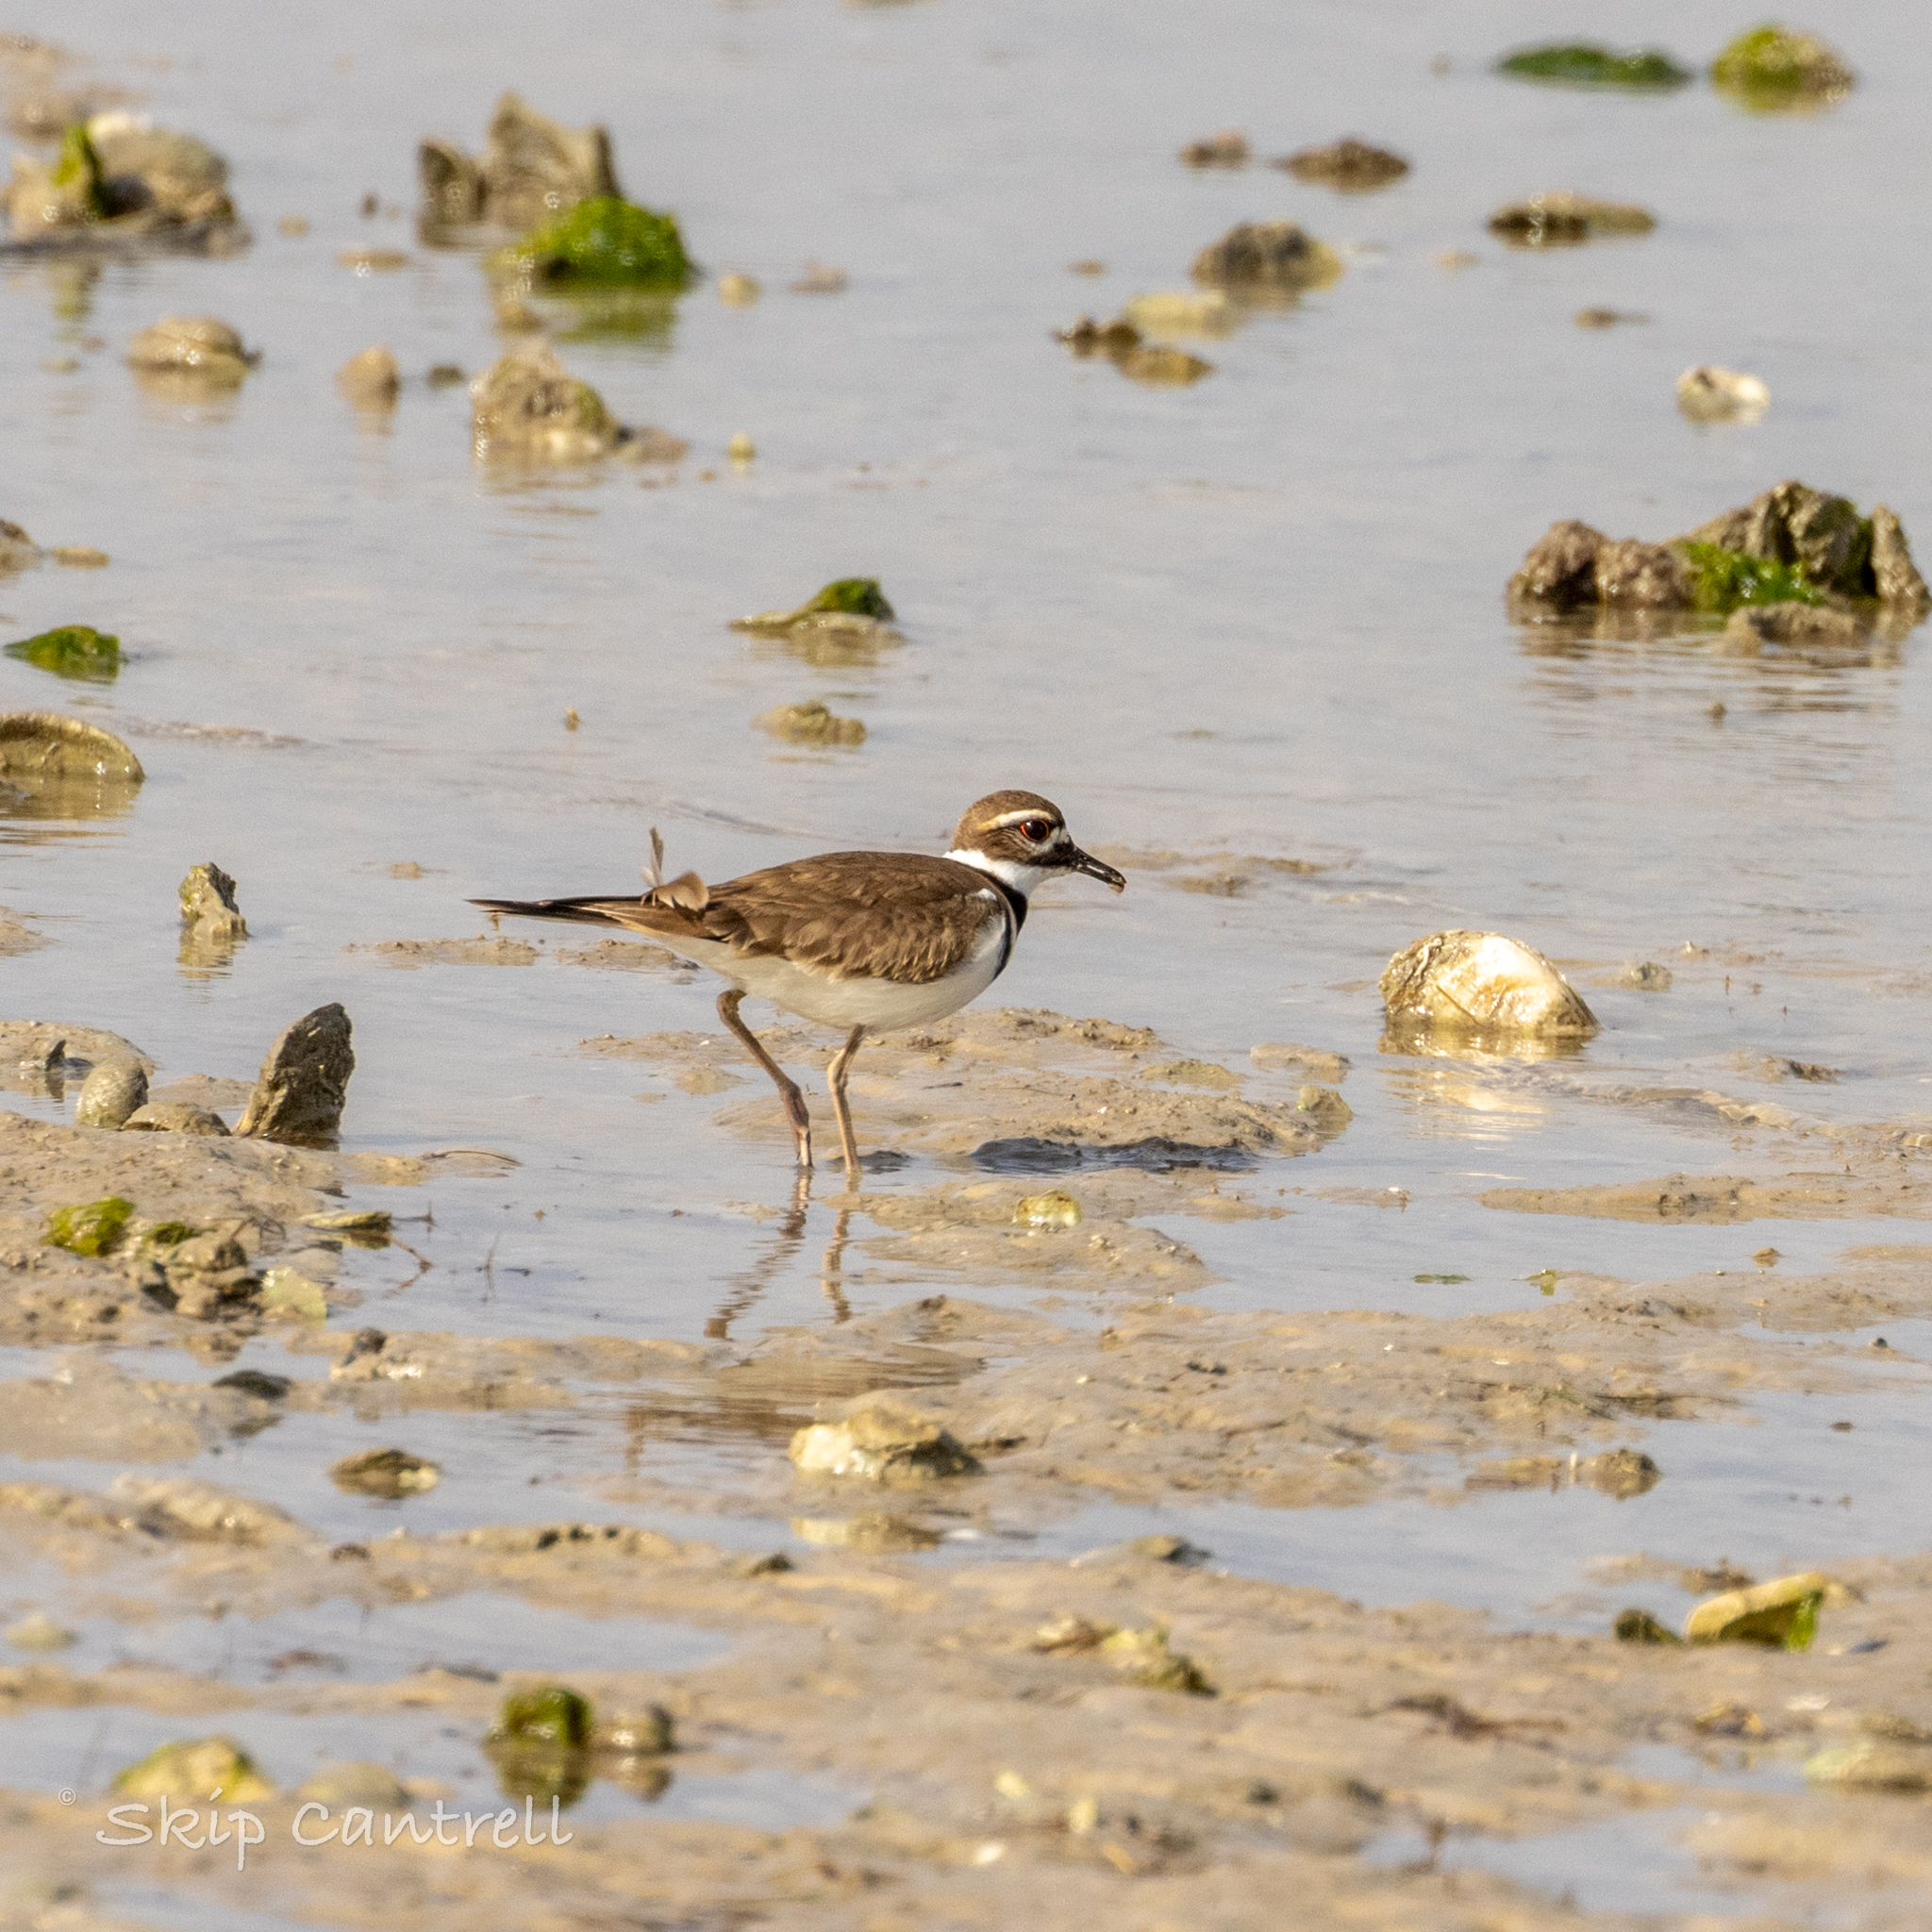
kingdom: Animalia
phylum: Chordata
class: Aves
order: Charadriiformes
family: Charadriidae
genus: Charadrius
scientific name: Charadrius vociferus
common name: Killdeer
